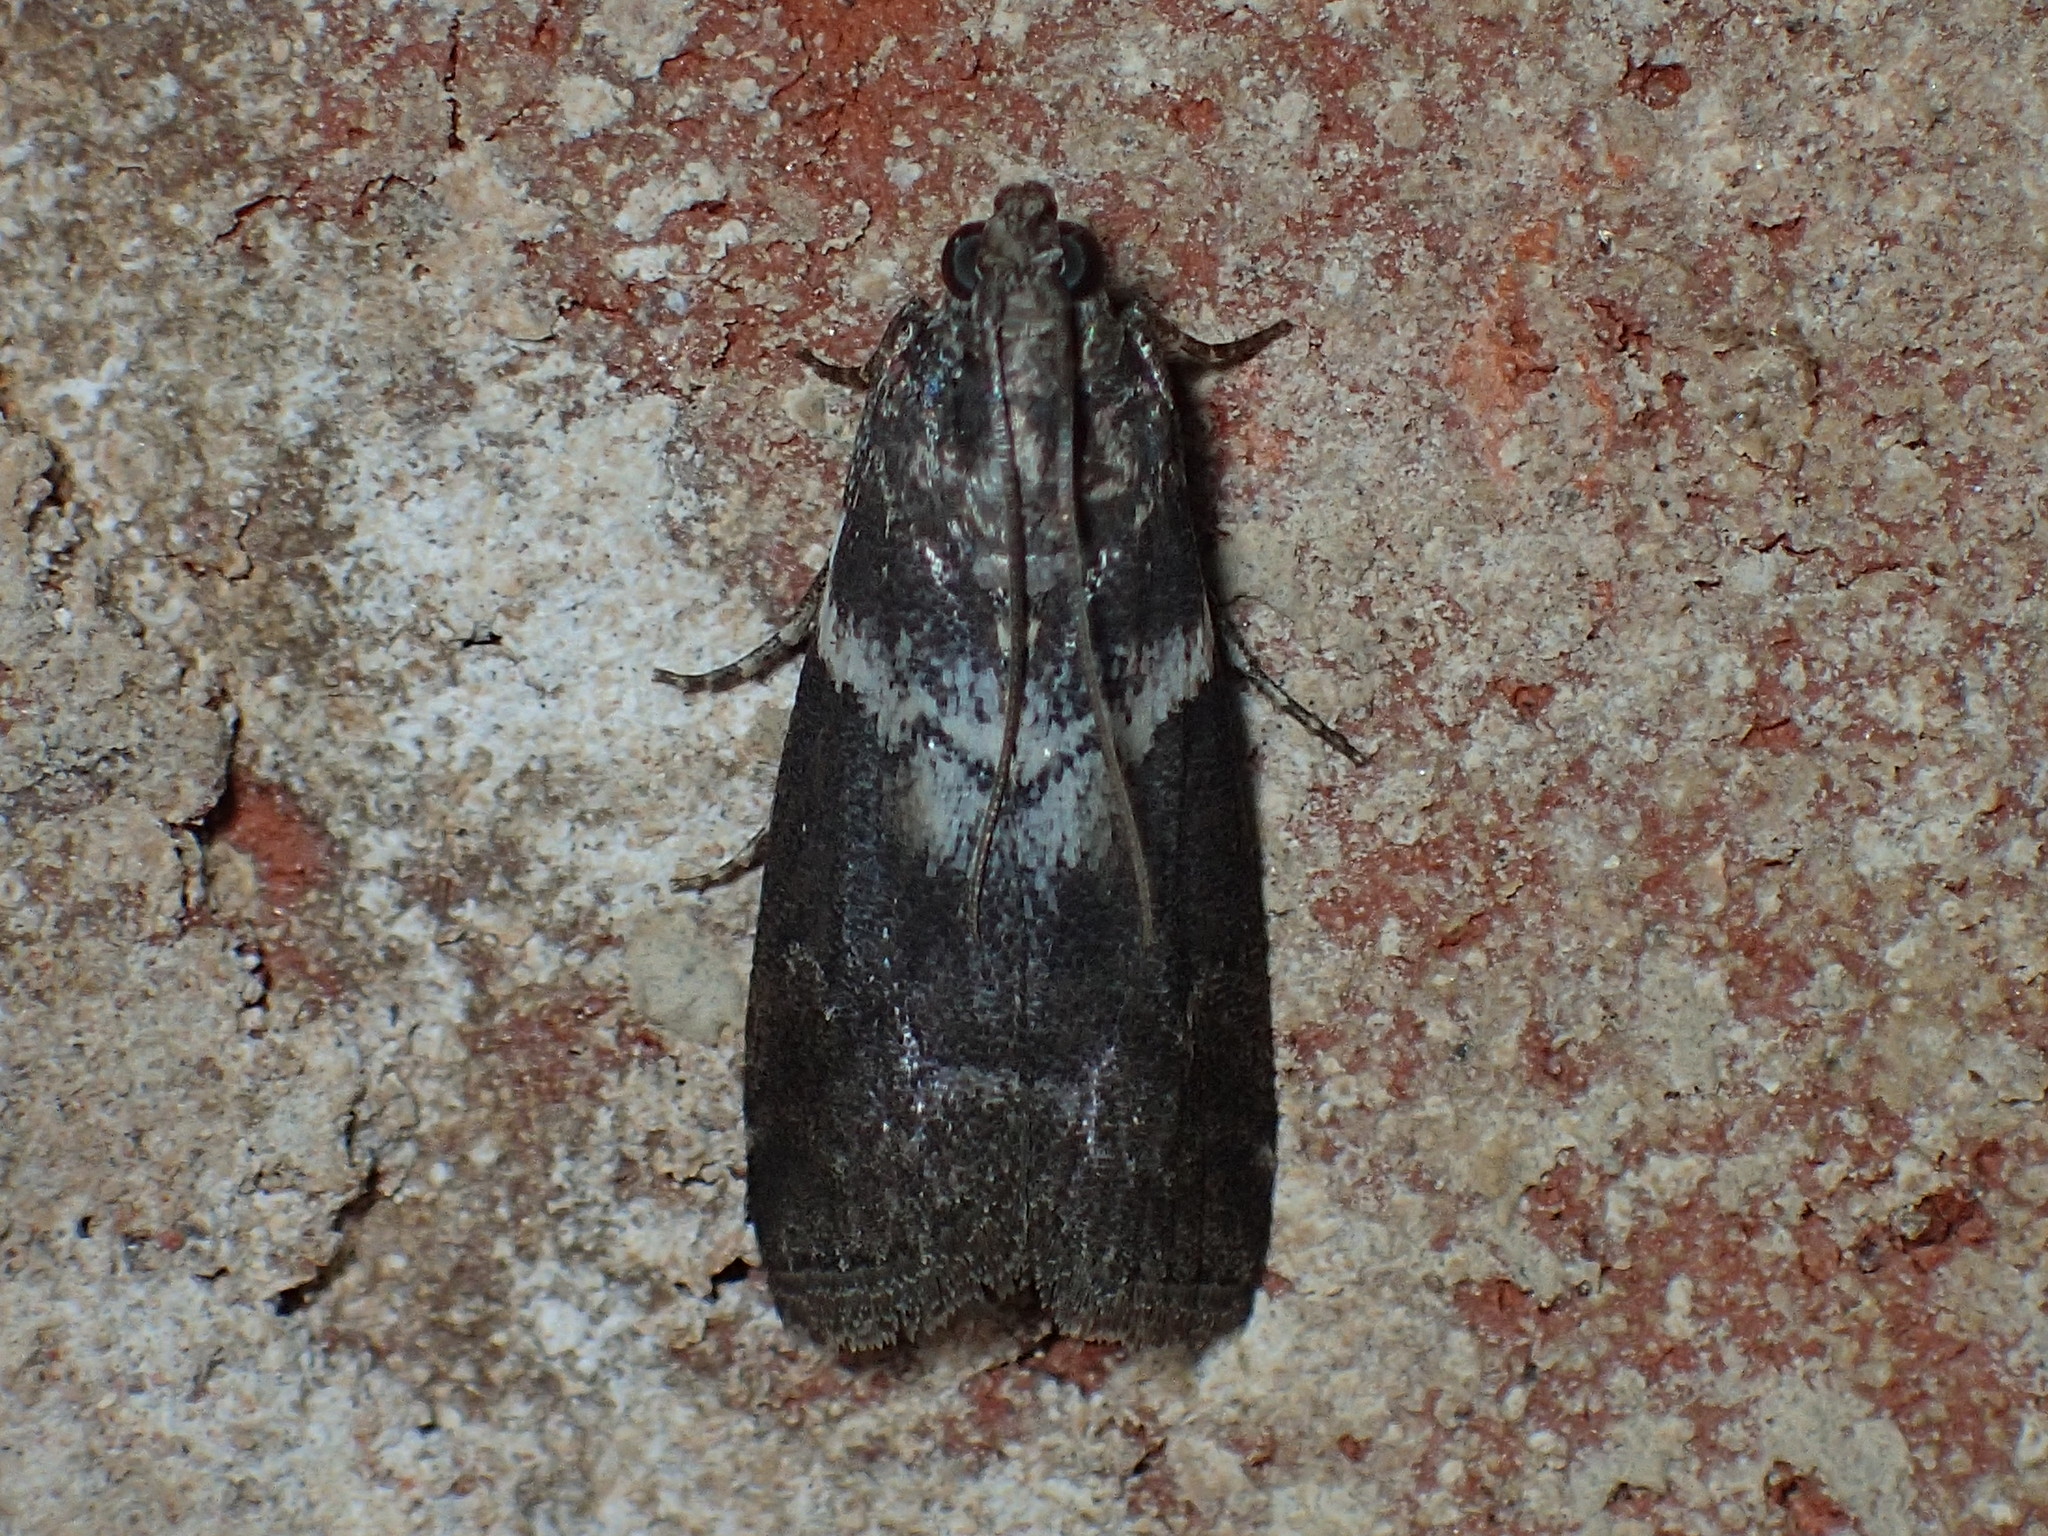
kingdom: Animalia
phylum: Arthropoda
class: Insecta
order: Lepidoptera
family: Pyralidae
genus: Salebriaria
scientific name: Salebriaria fasciata
